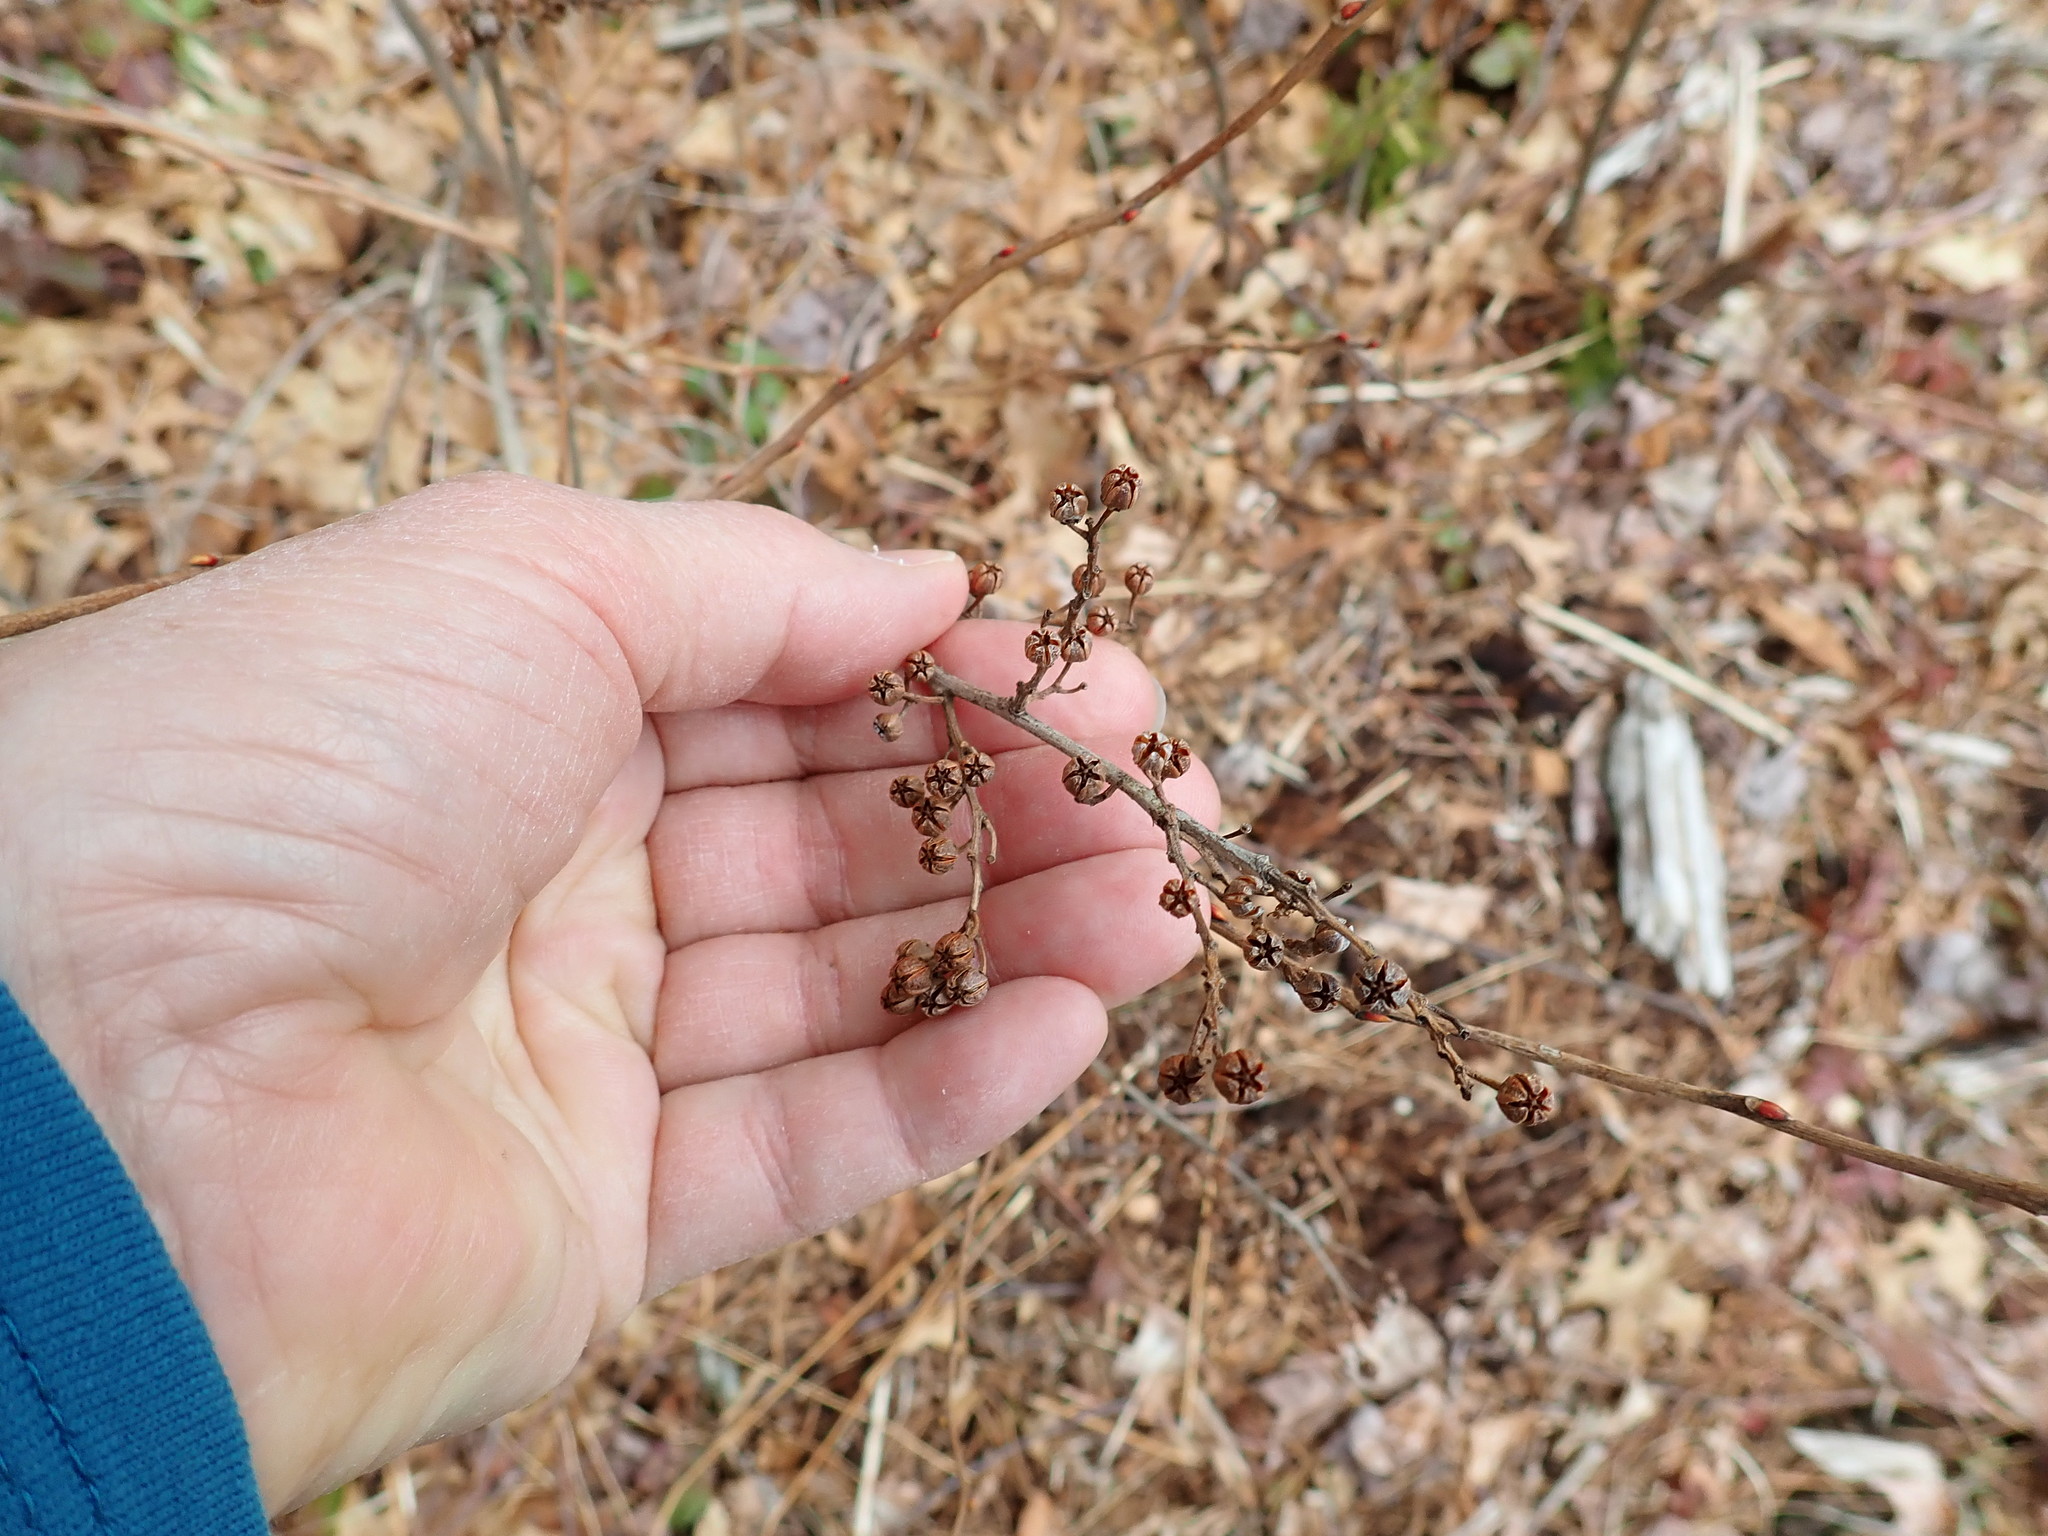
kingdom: Plantae
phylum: Tracheophyta
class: Magnoliopsida
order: Ericales
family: Ericaceae
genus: Lyonia
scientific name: Lyonia ligustrina
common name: Maleberry
